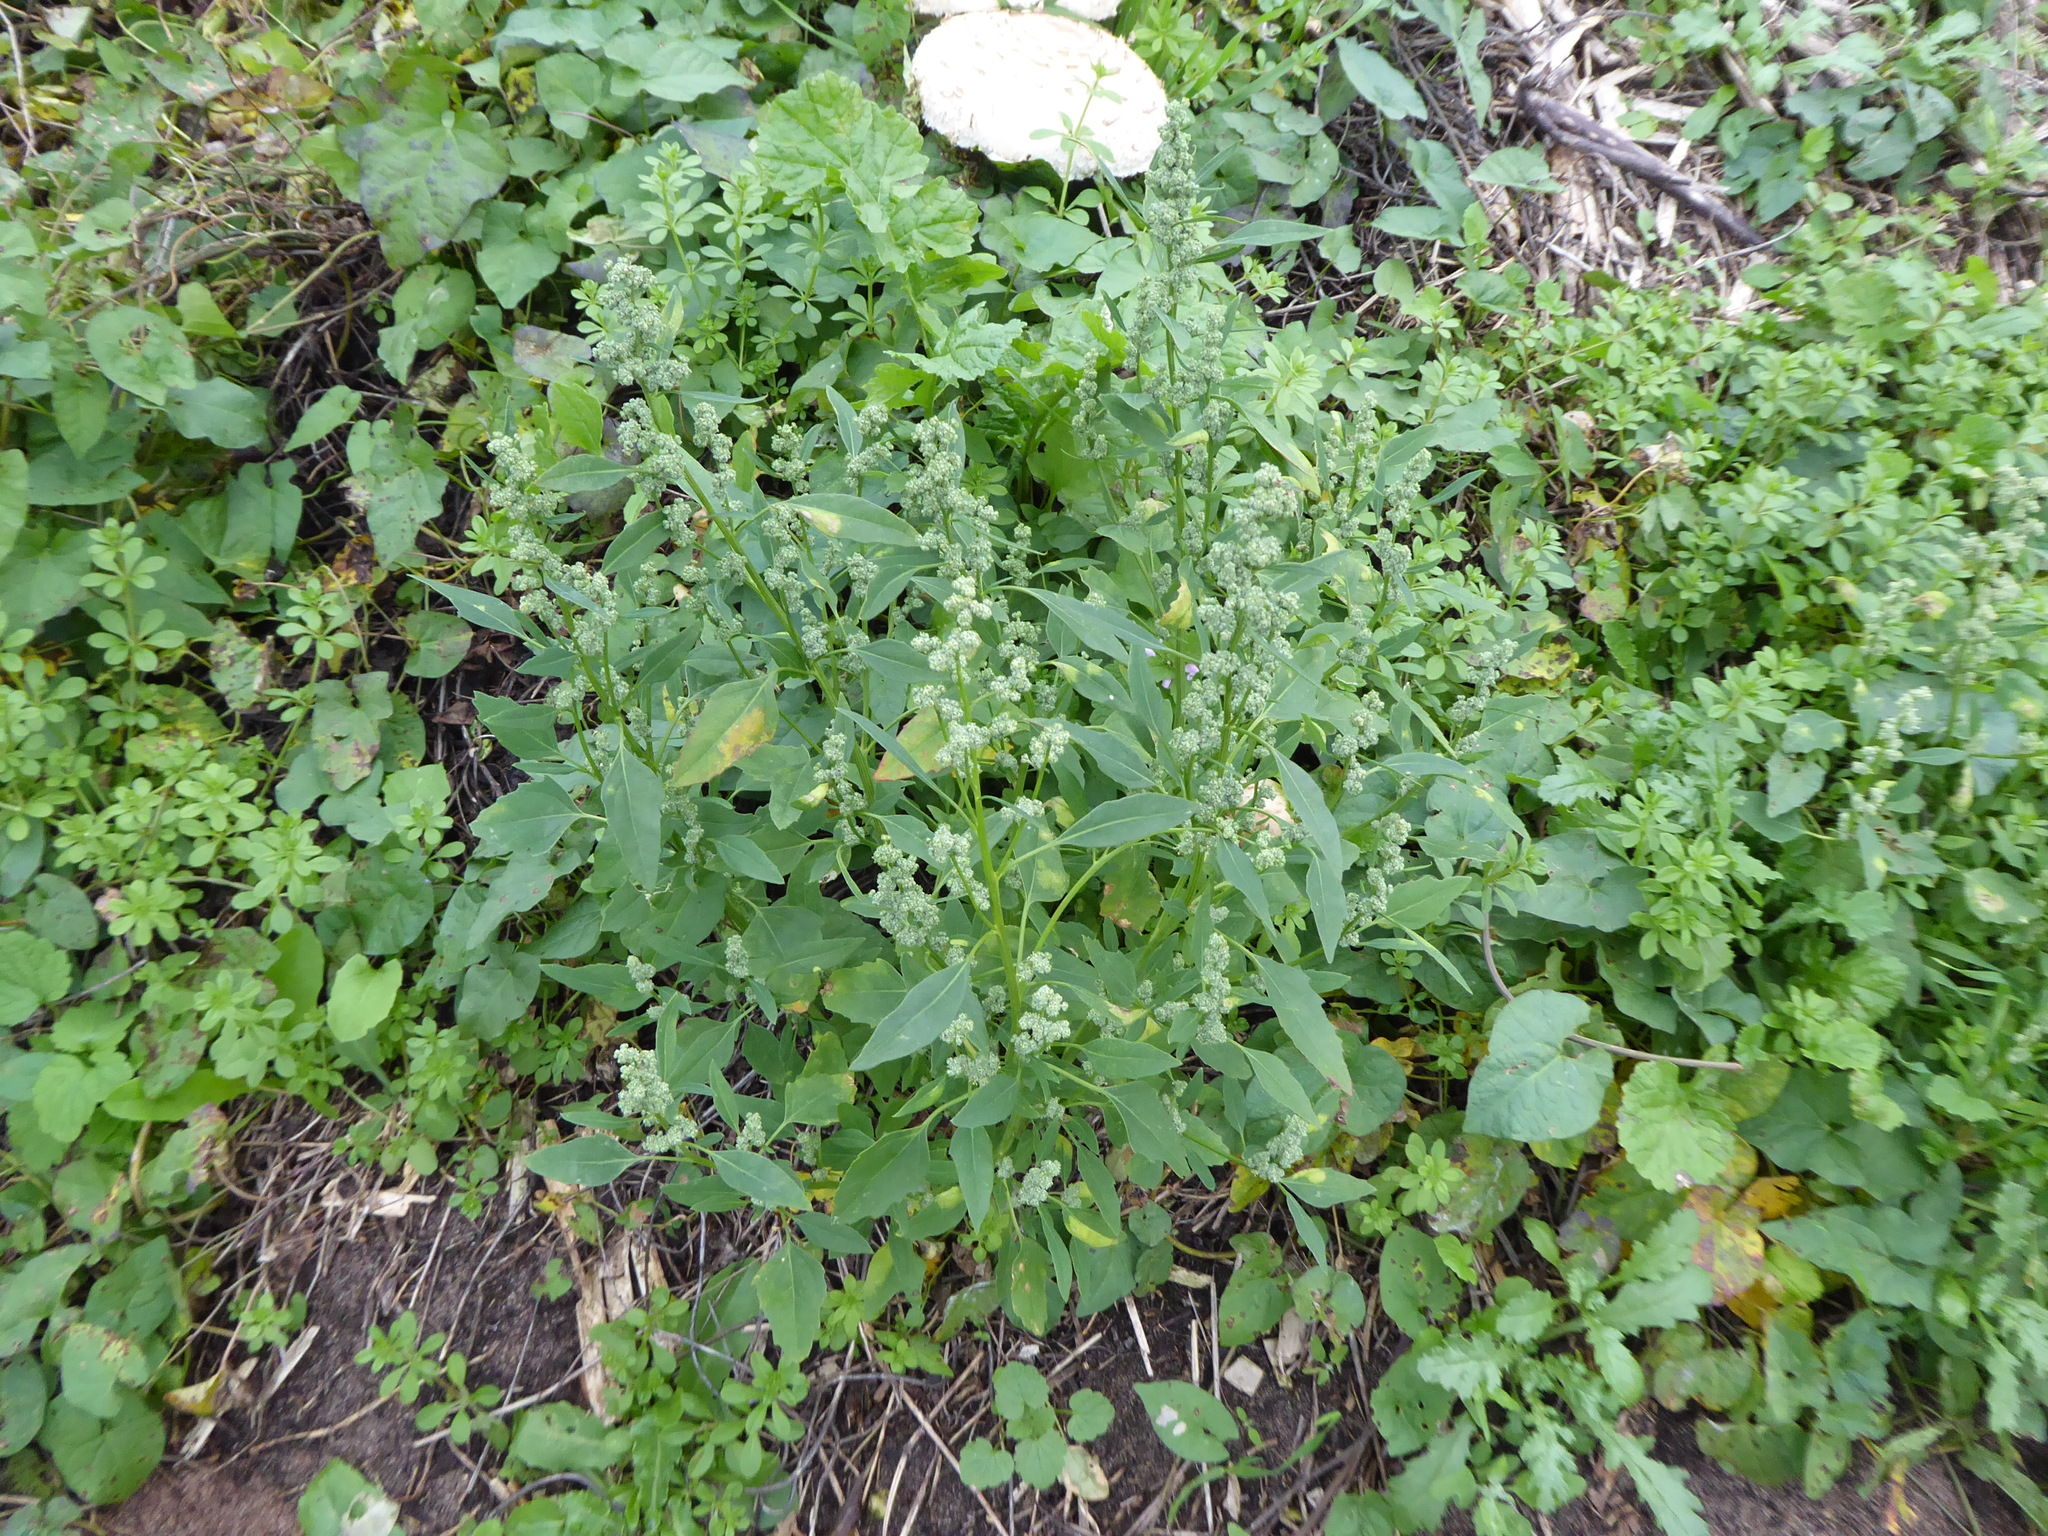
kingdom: Plantae
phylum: Tracheophyta
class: Magnoliopsida
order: Caryophyllales
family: Amaranthaceae
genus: Chenopodium
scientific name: Chenopodium album
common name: Fat-hen
